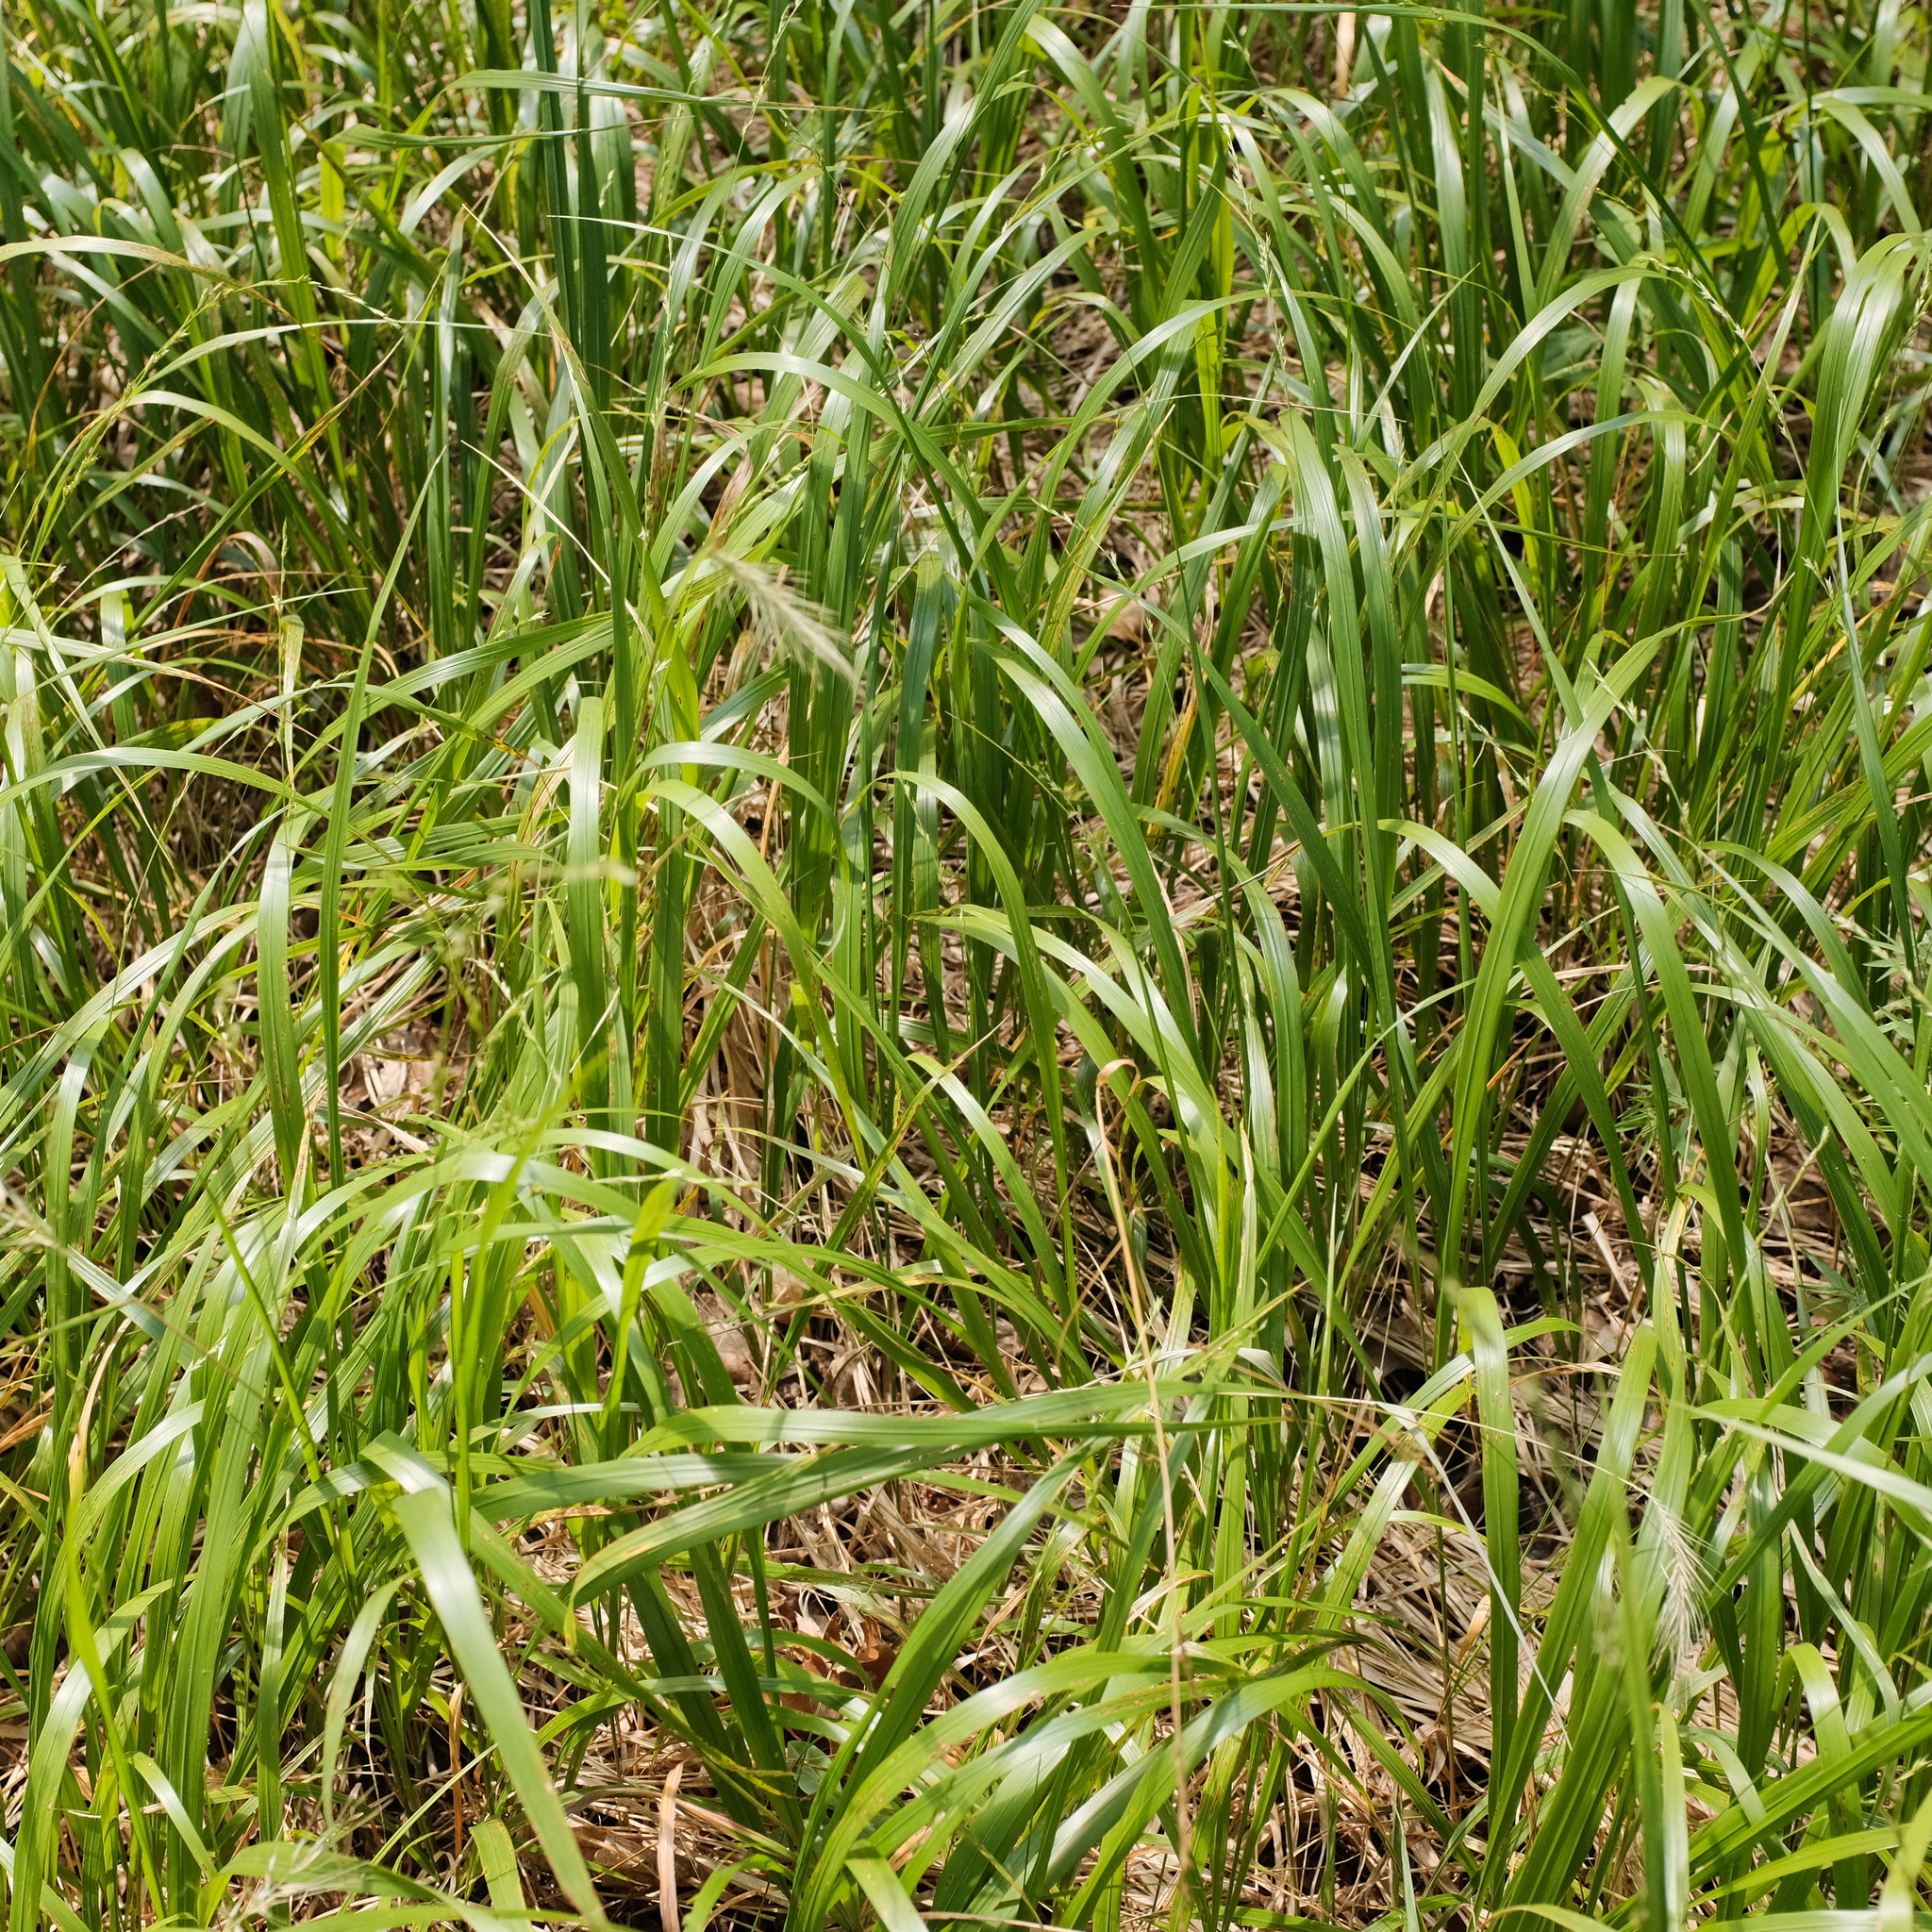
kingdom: Plantae
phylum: Tracheophyta
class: Liliopsida
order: Poales
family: Poaceae
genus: Diarrhena
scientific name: Diarrhena obovata
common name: Beakgrass
